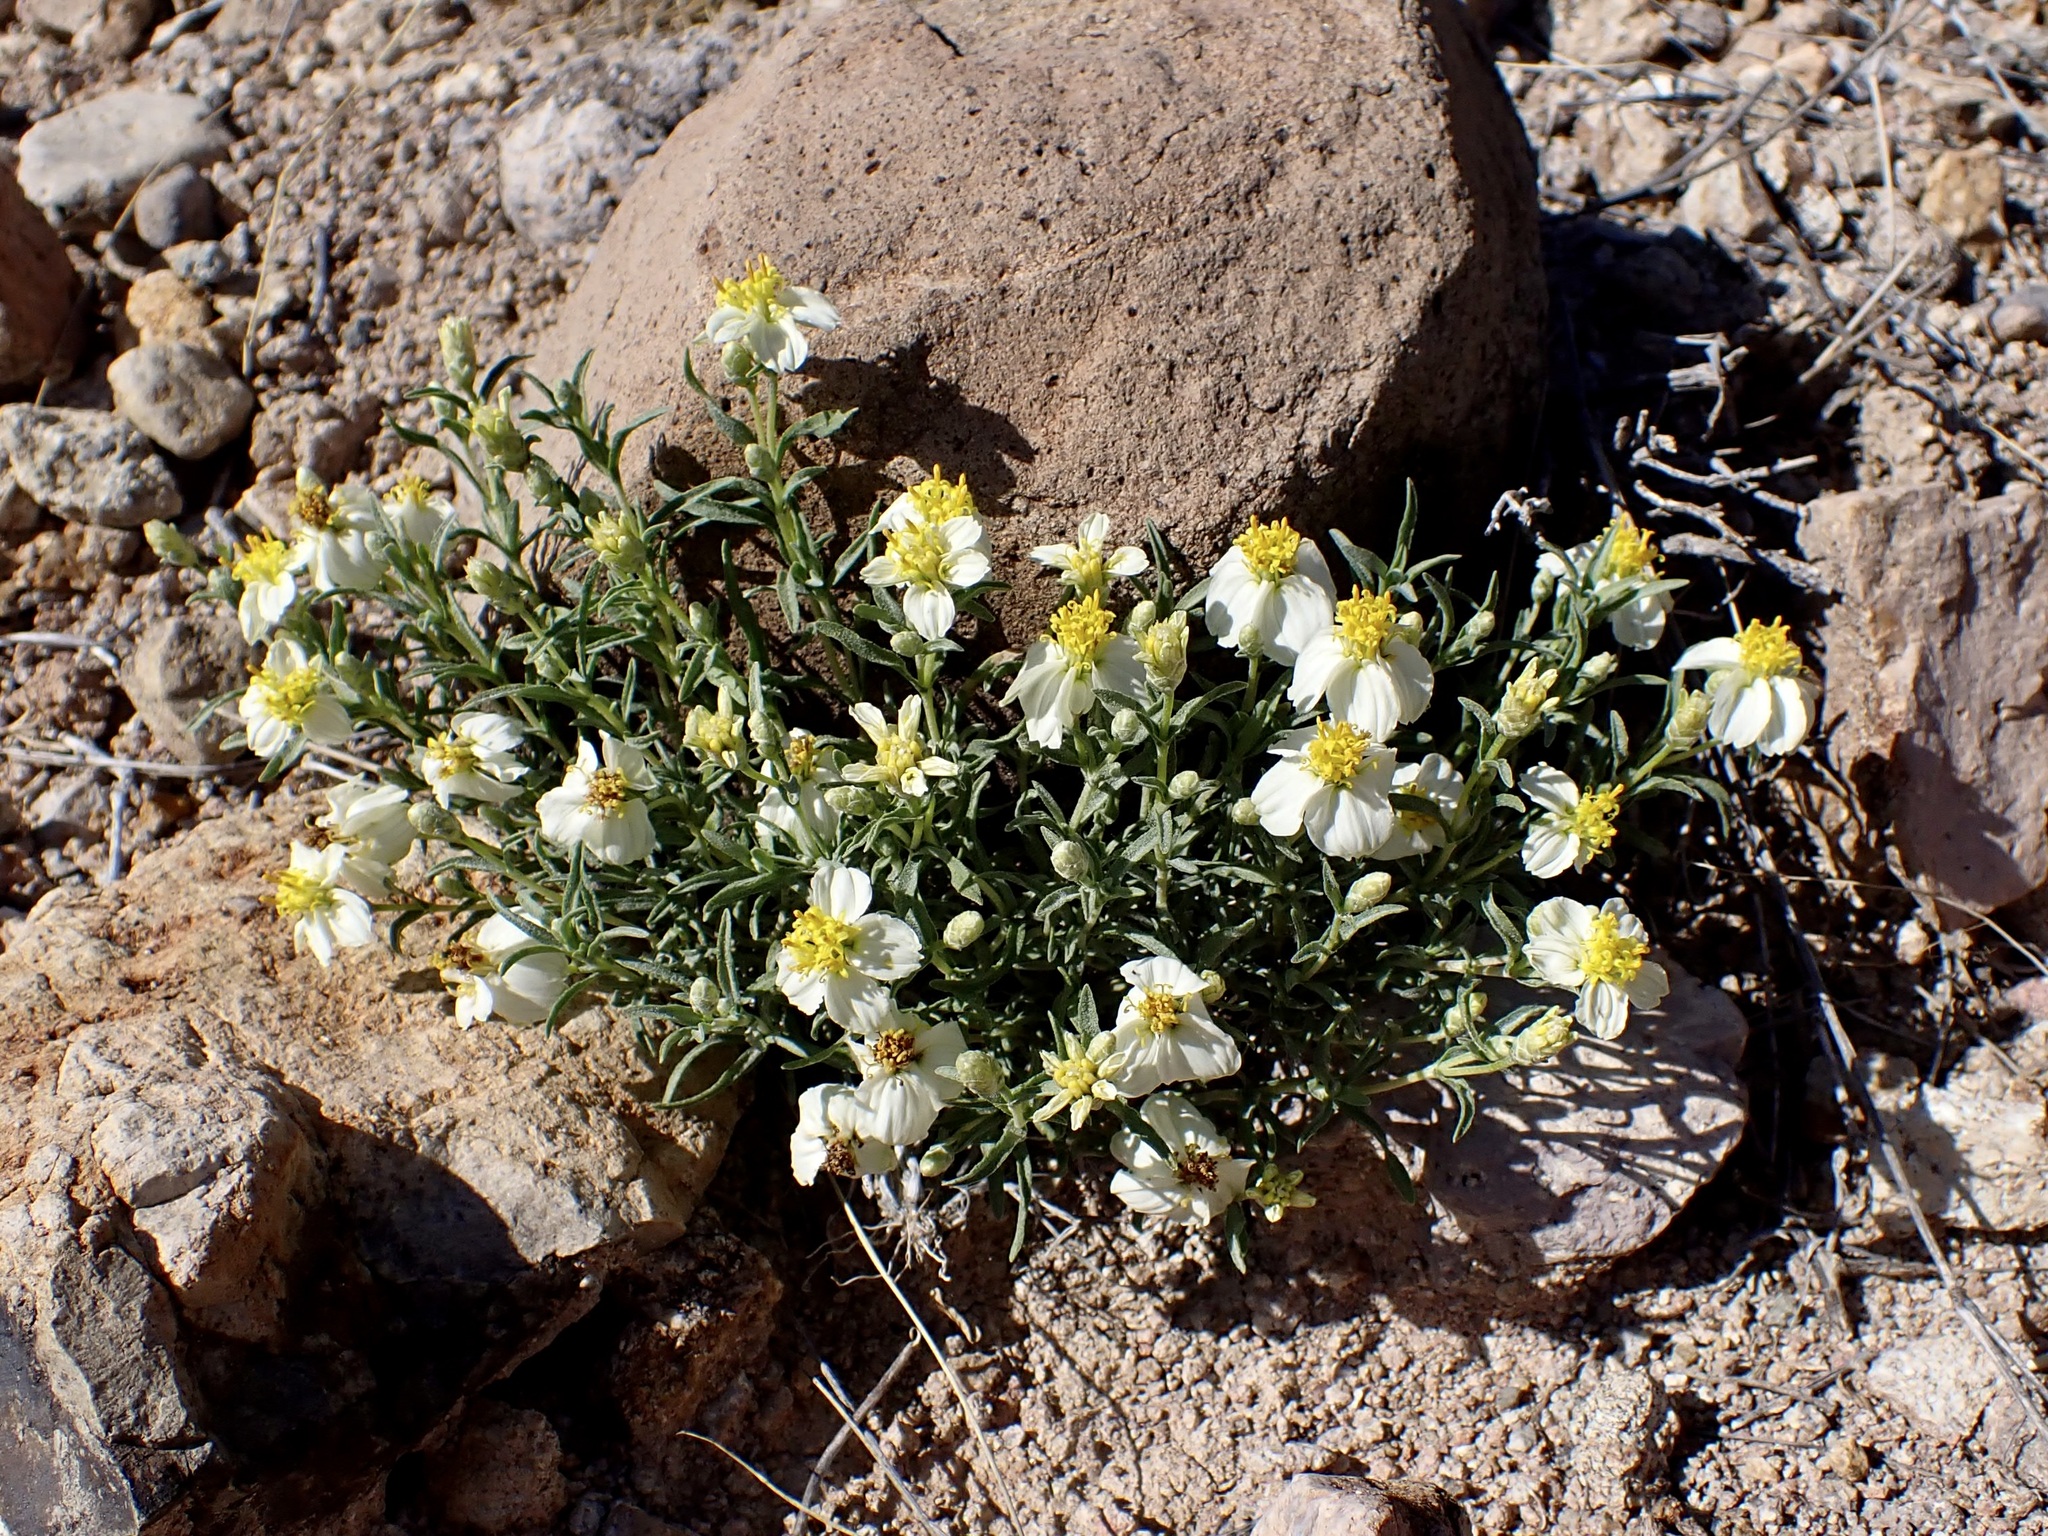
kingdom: Plantae
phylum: Tracheophyta
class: Magnoliopsida
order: Asterales
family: Asteraceae
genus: Zinnia
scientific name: Zinnia acerosa
